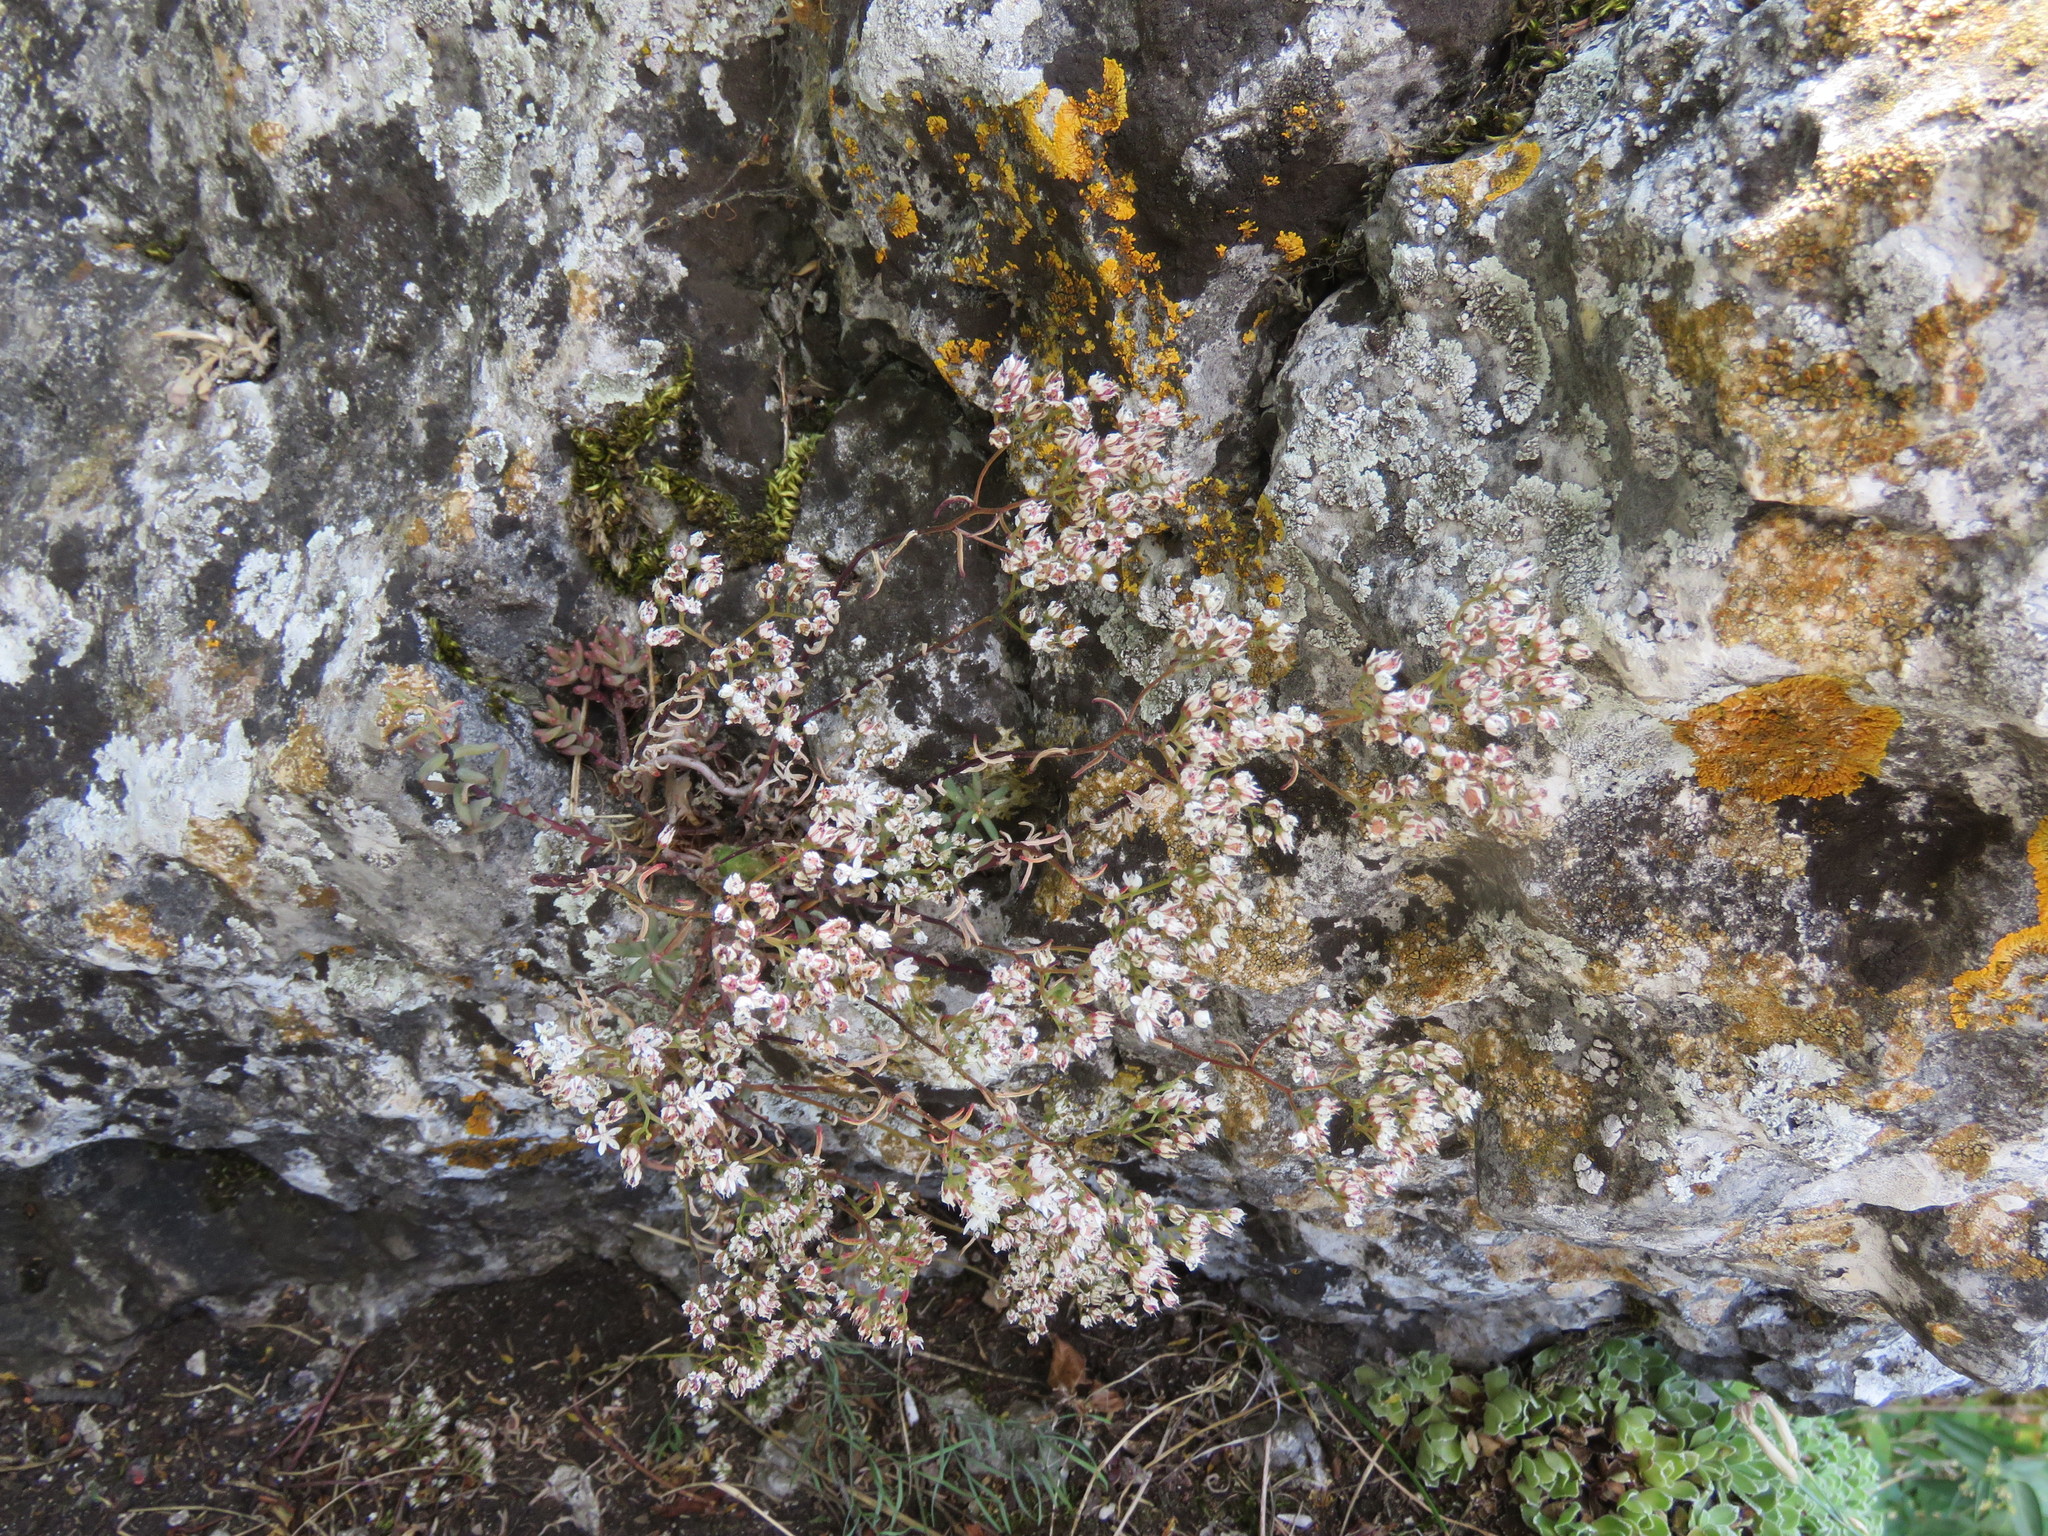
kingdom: Plantae
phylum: Tracheophyta
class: Magnoliopsida
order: Saxifragales
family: Crassulaceae
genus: Sedum
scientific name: Sedum album
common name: White stonecrop
